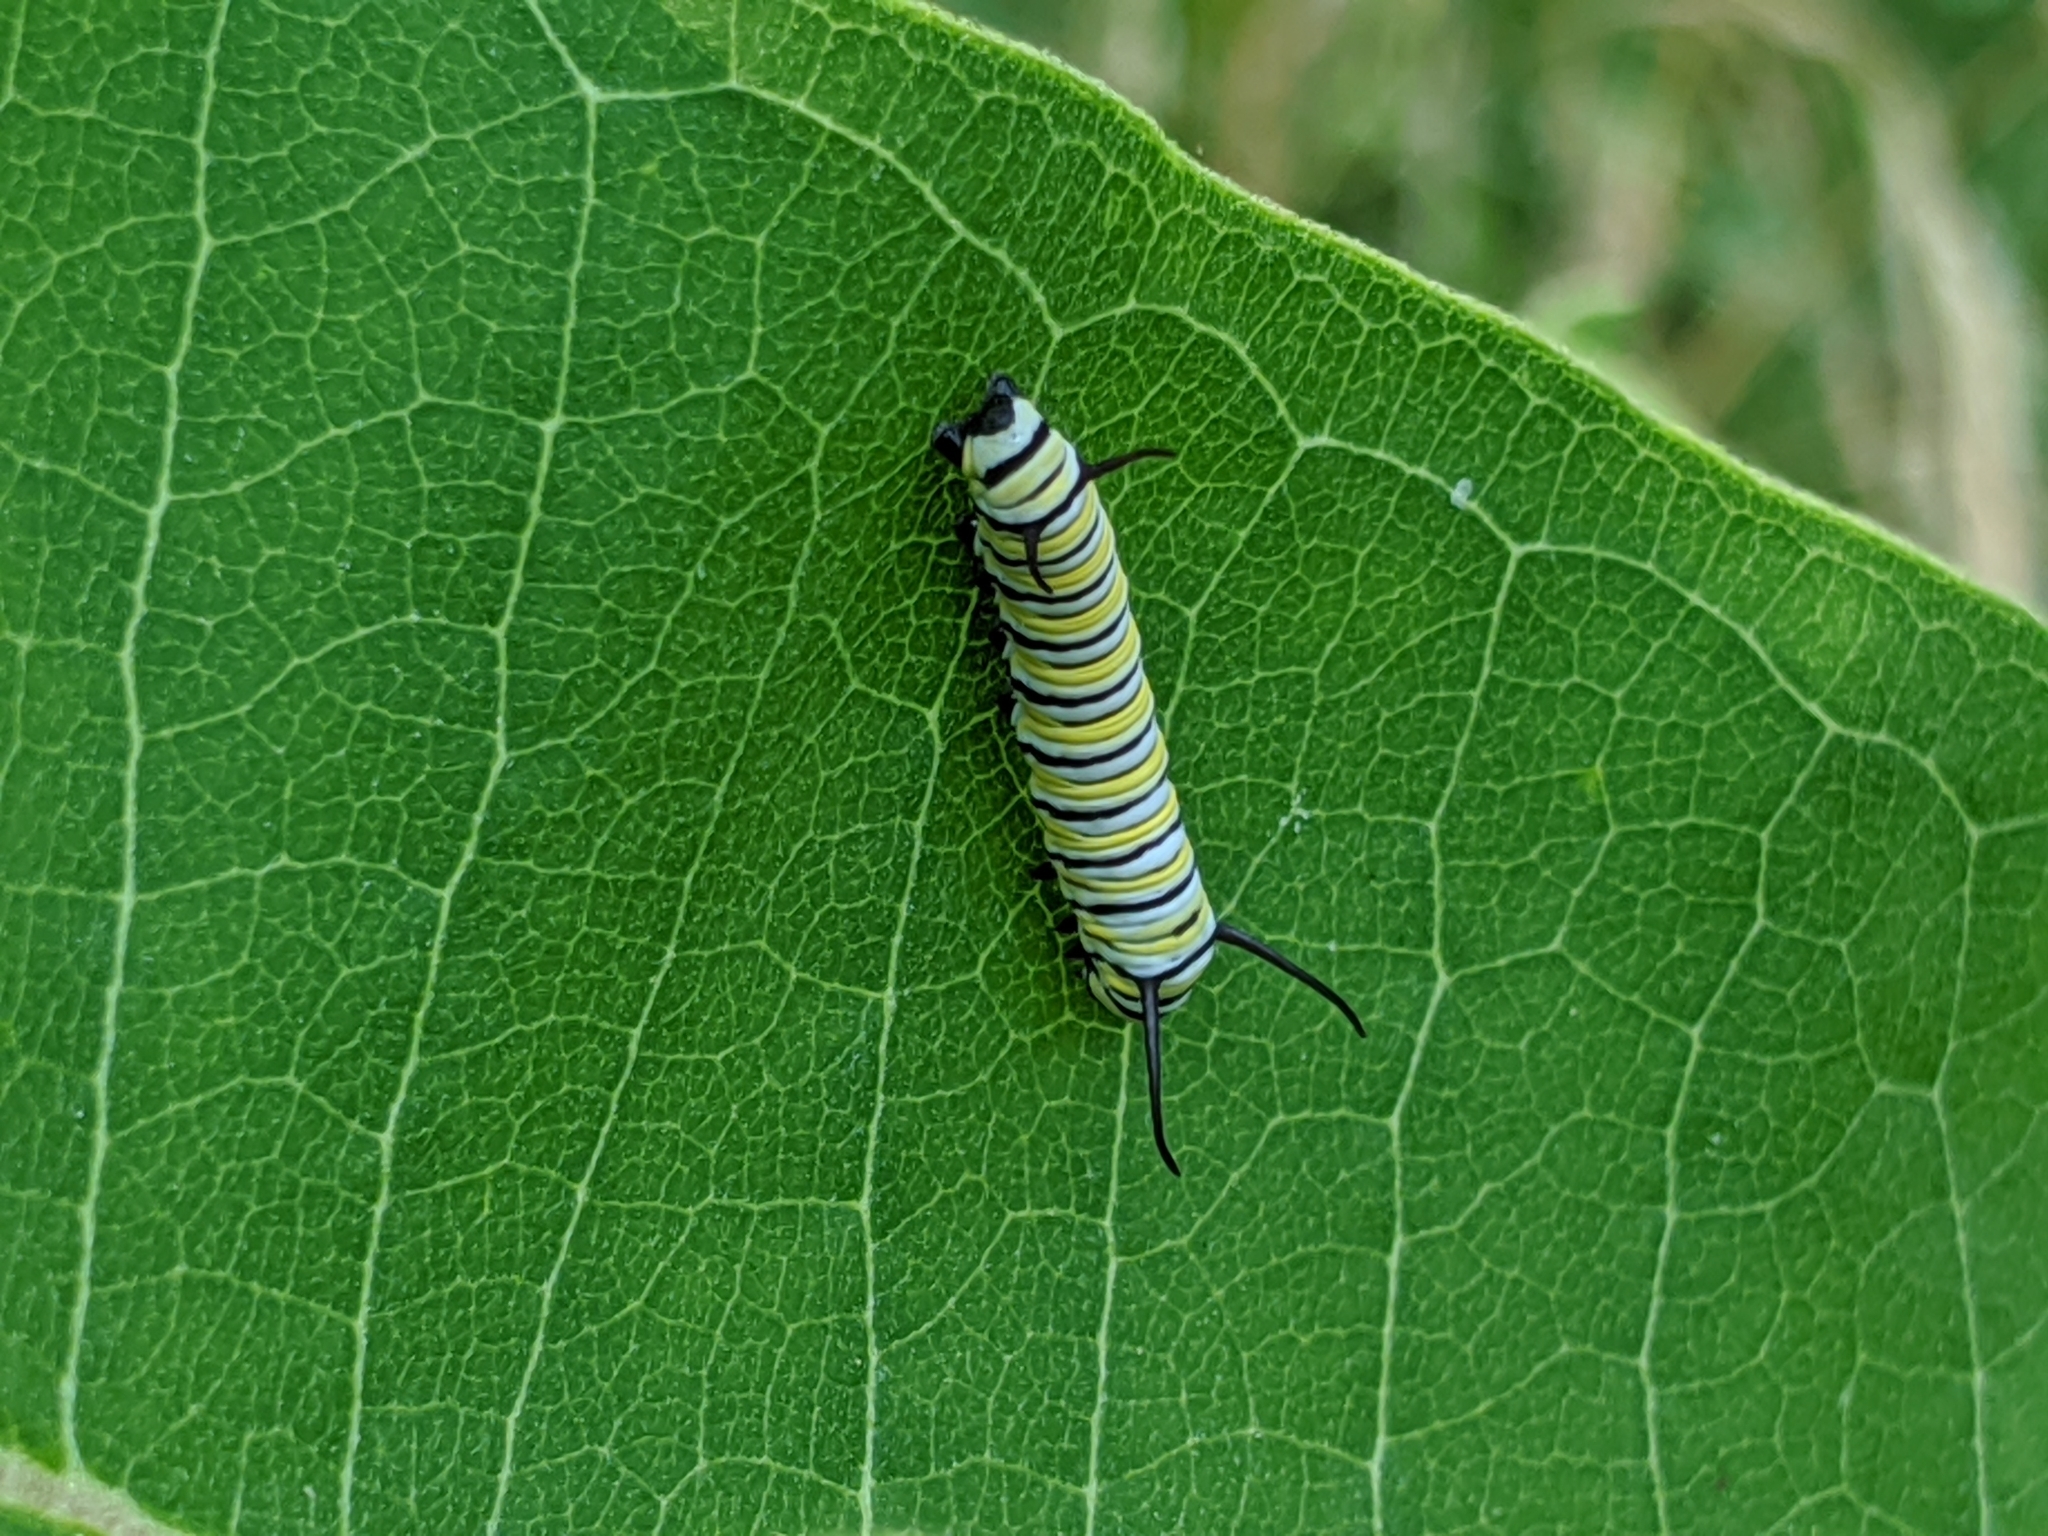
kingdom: Animalia
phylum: Arthropoda
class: Insecta
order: Lepidoptera
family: Nymphalidae
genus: Danaus
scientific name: Danaus plexippus
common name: Monarch
